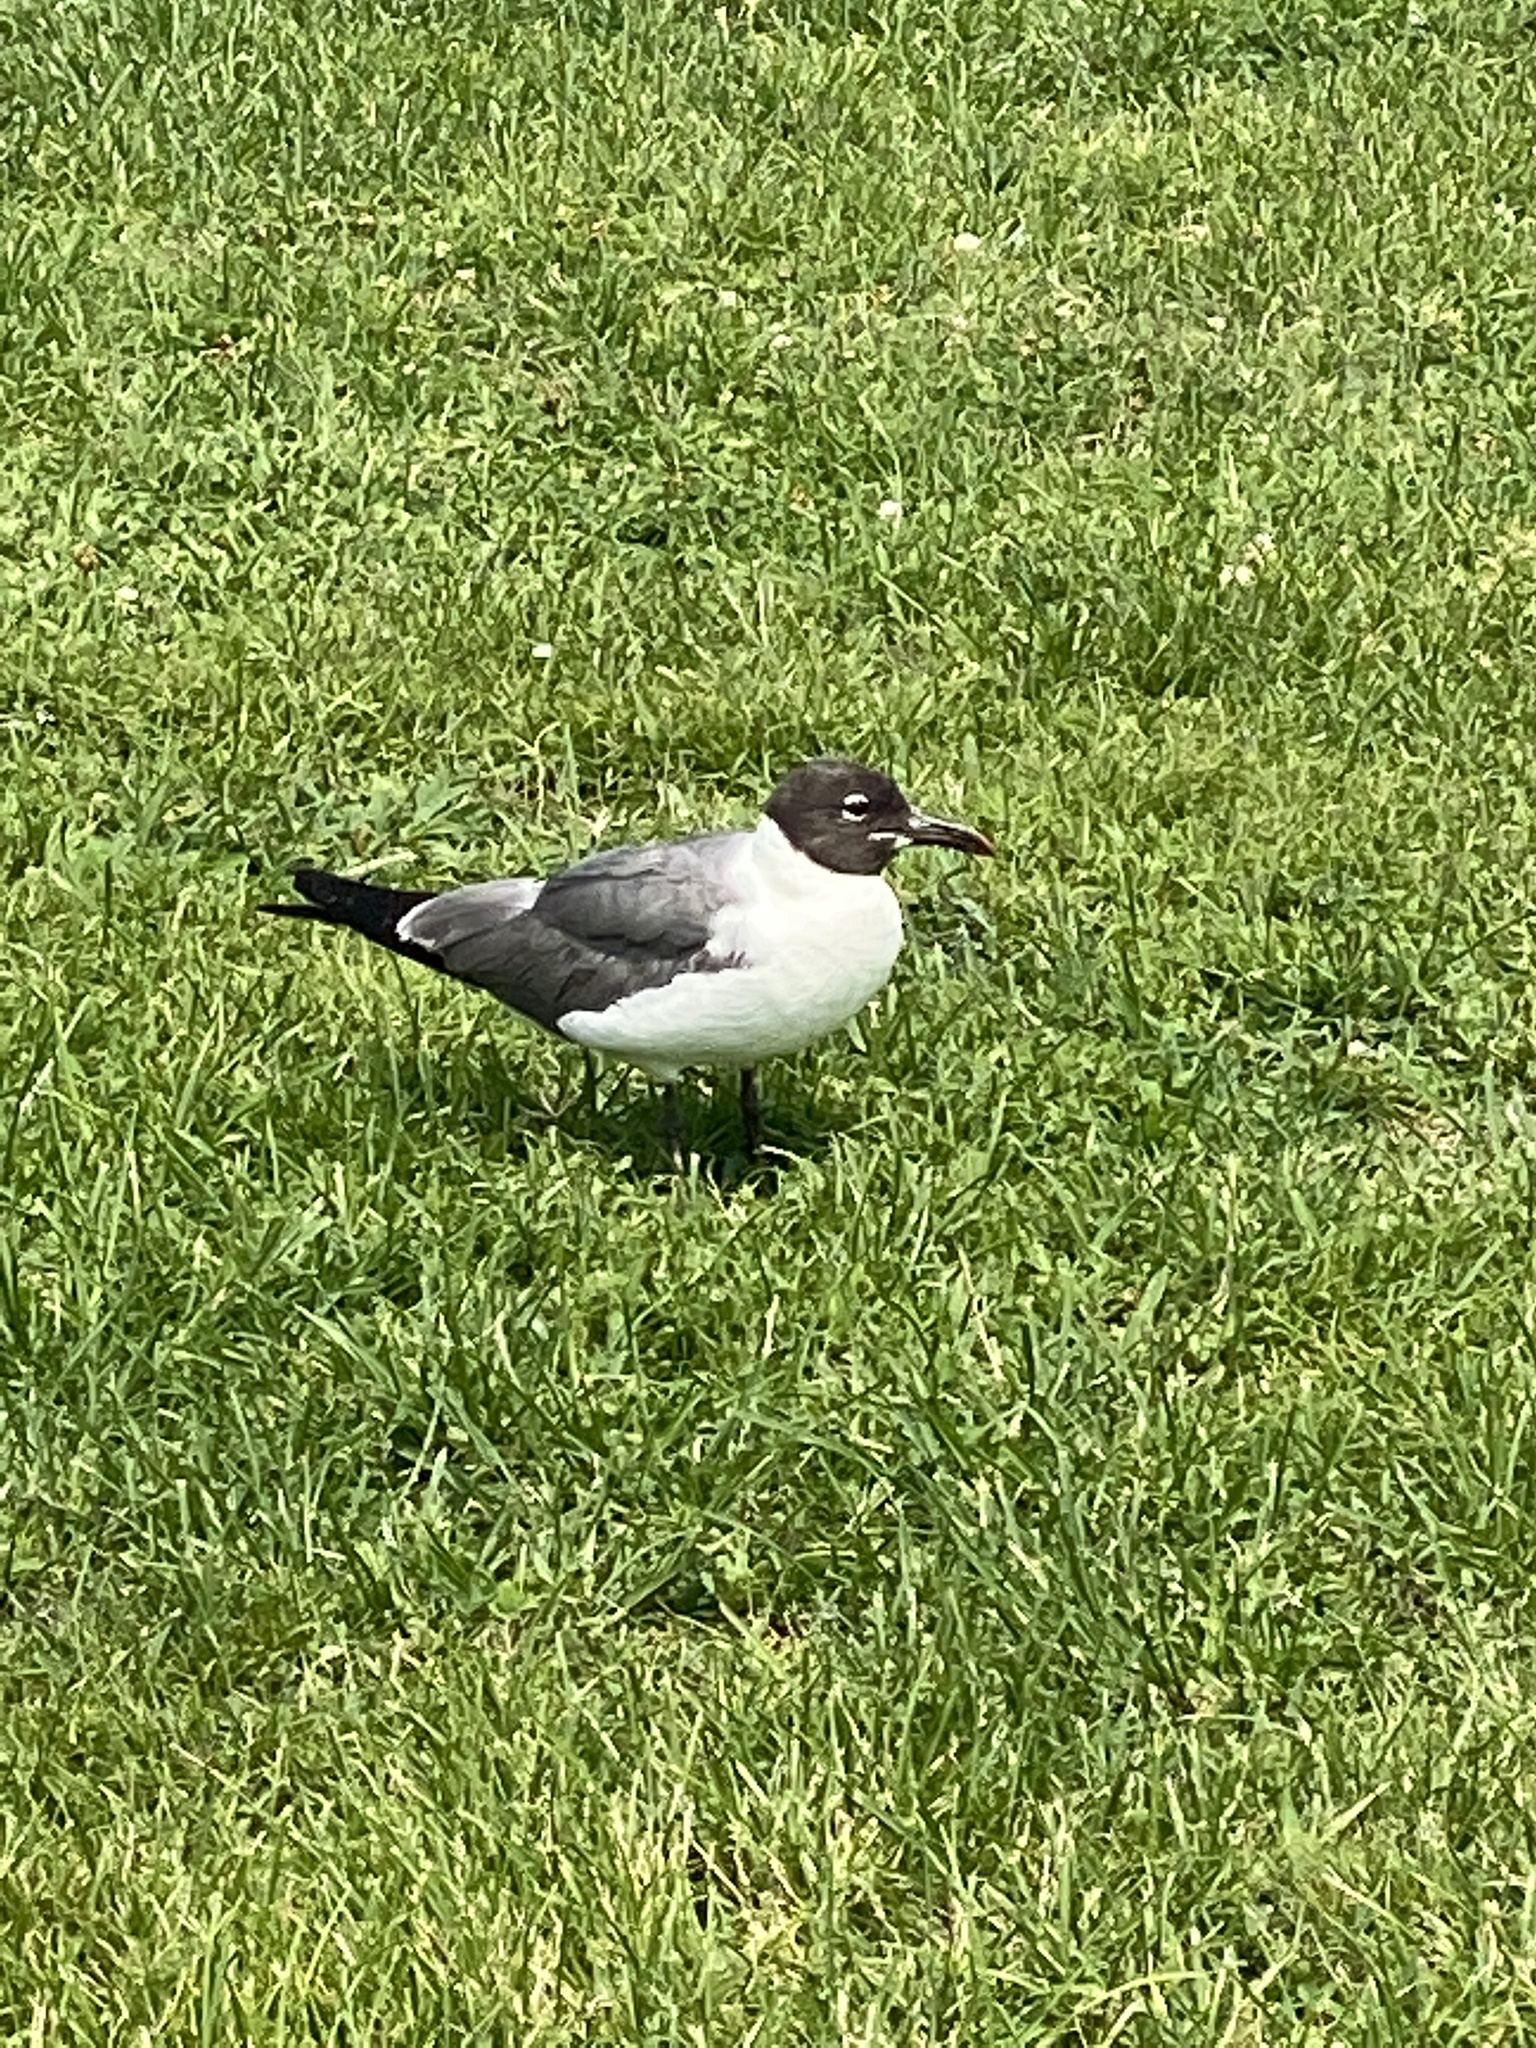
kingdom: Animalia
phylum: Chordata
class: Aves
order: Charadriiformes
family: Laridae
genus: Leucophaeus
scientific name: Leucophaeus atricilla
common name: Laughing gull
